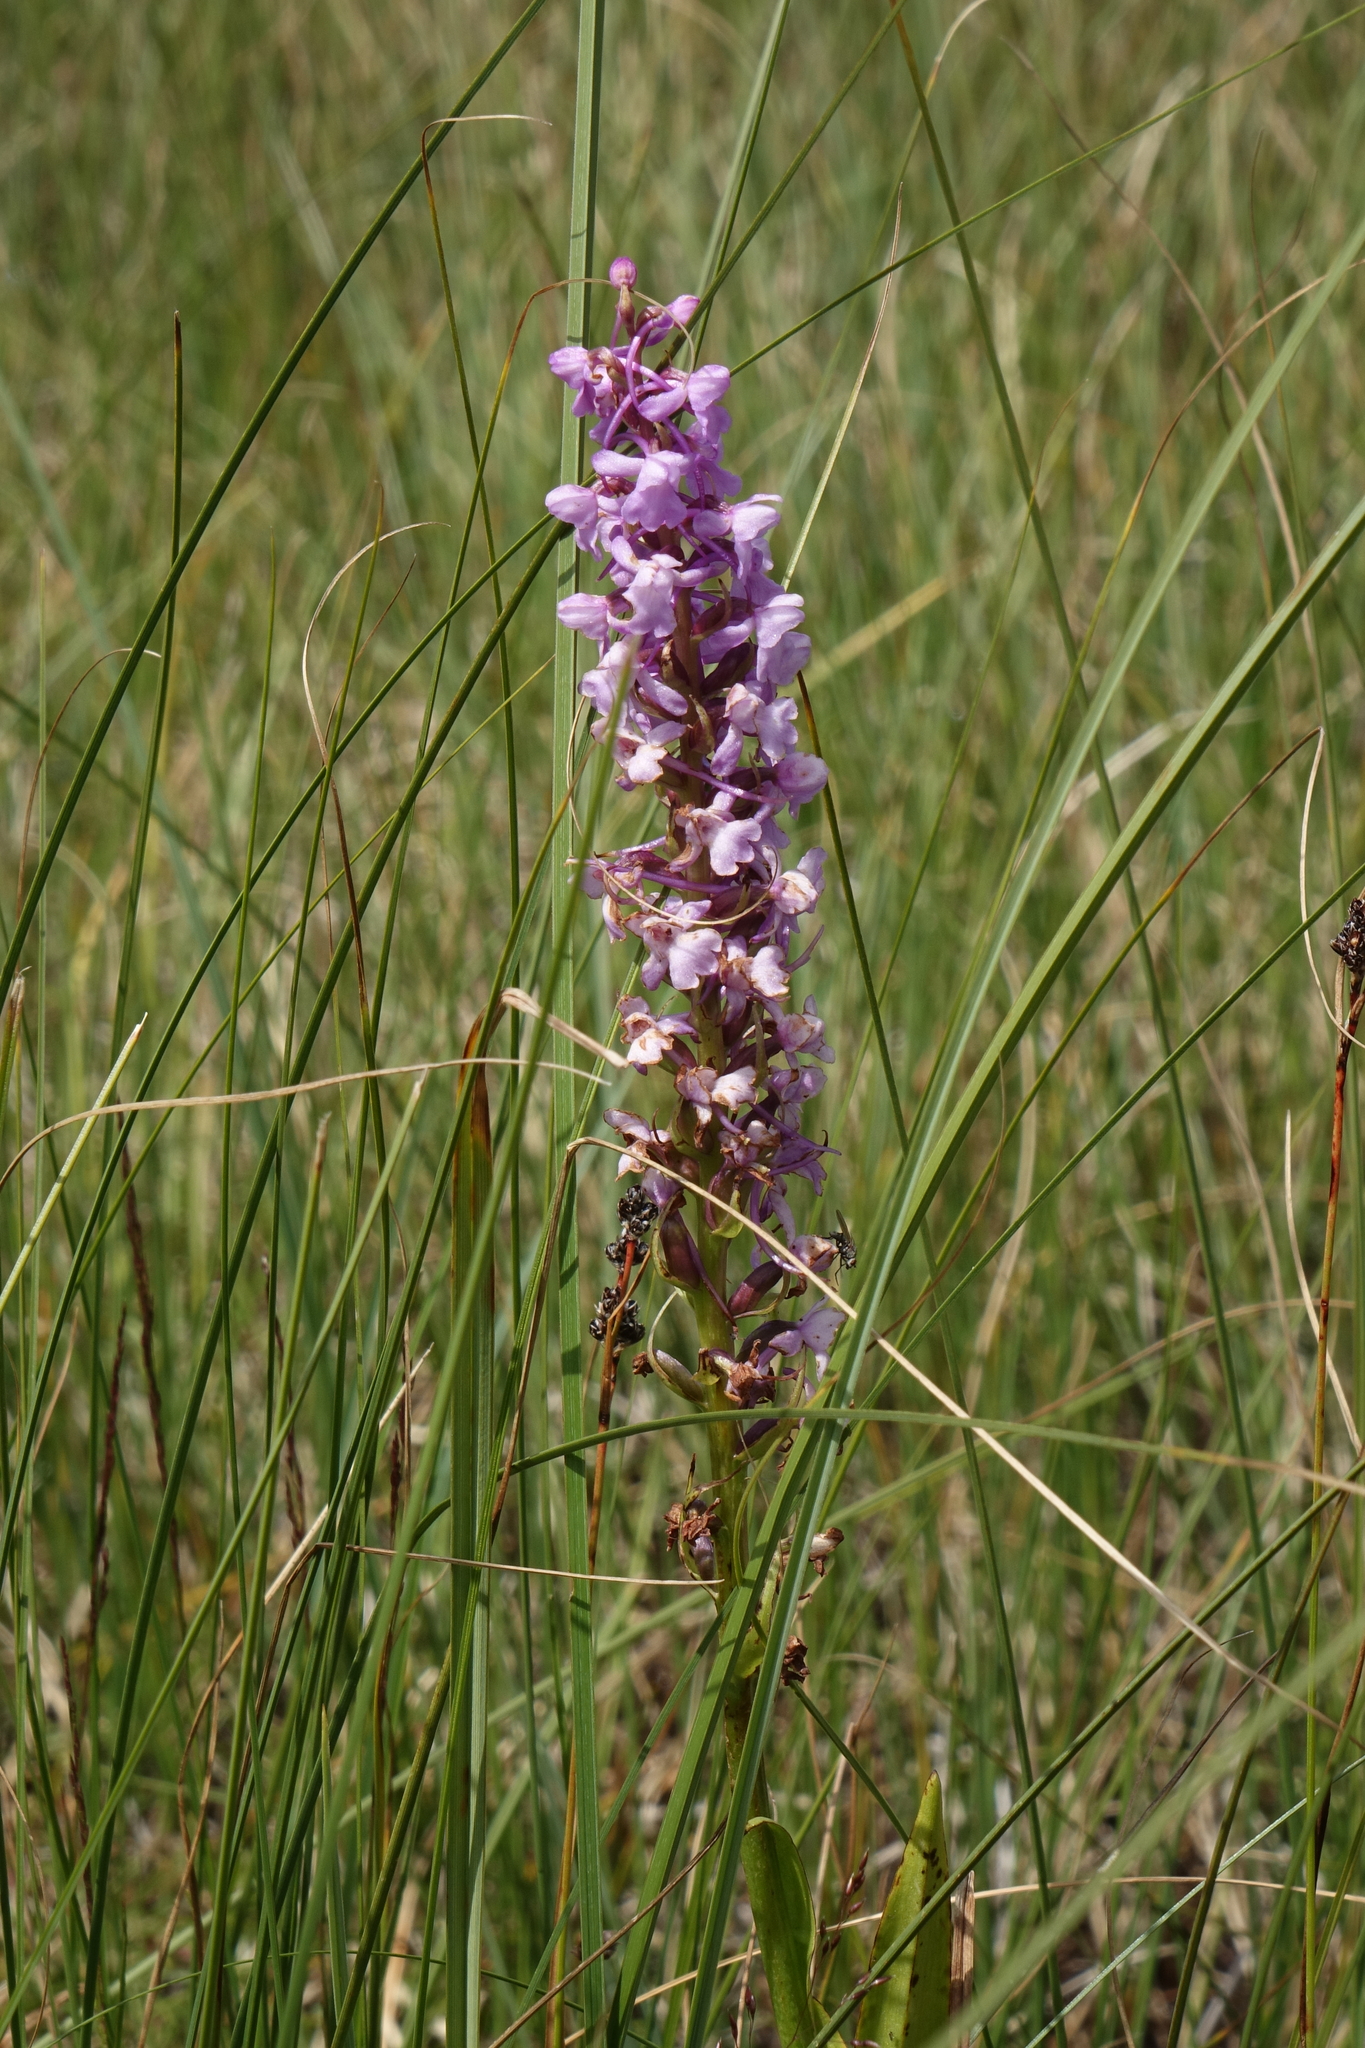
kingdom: Plantae
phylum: Tracheophyta
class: Liliopsida
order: Asparagales
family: Orchidaceae
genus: Gymnadenia
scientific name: Gymnadenia conopsea
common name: Fragrant orchid
